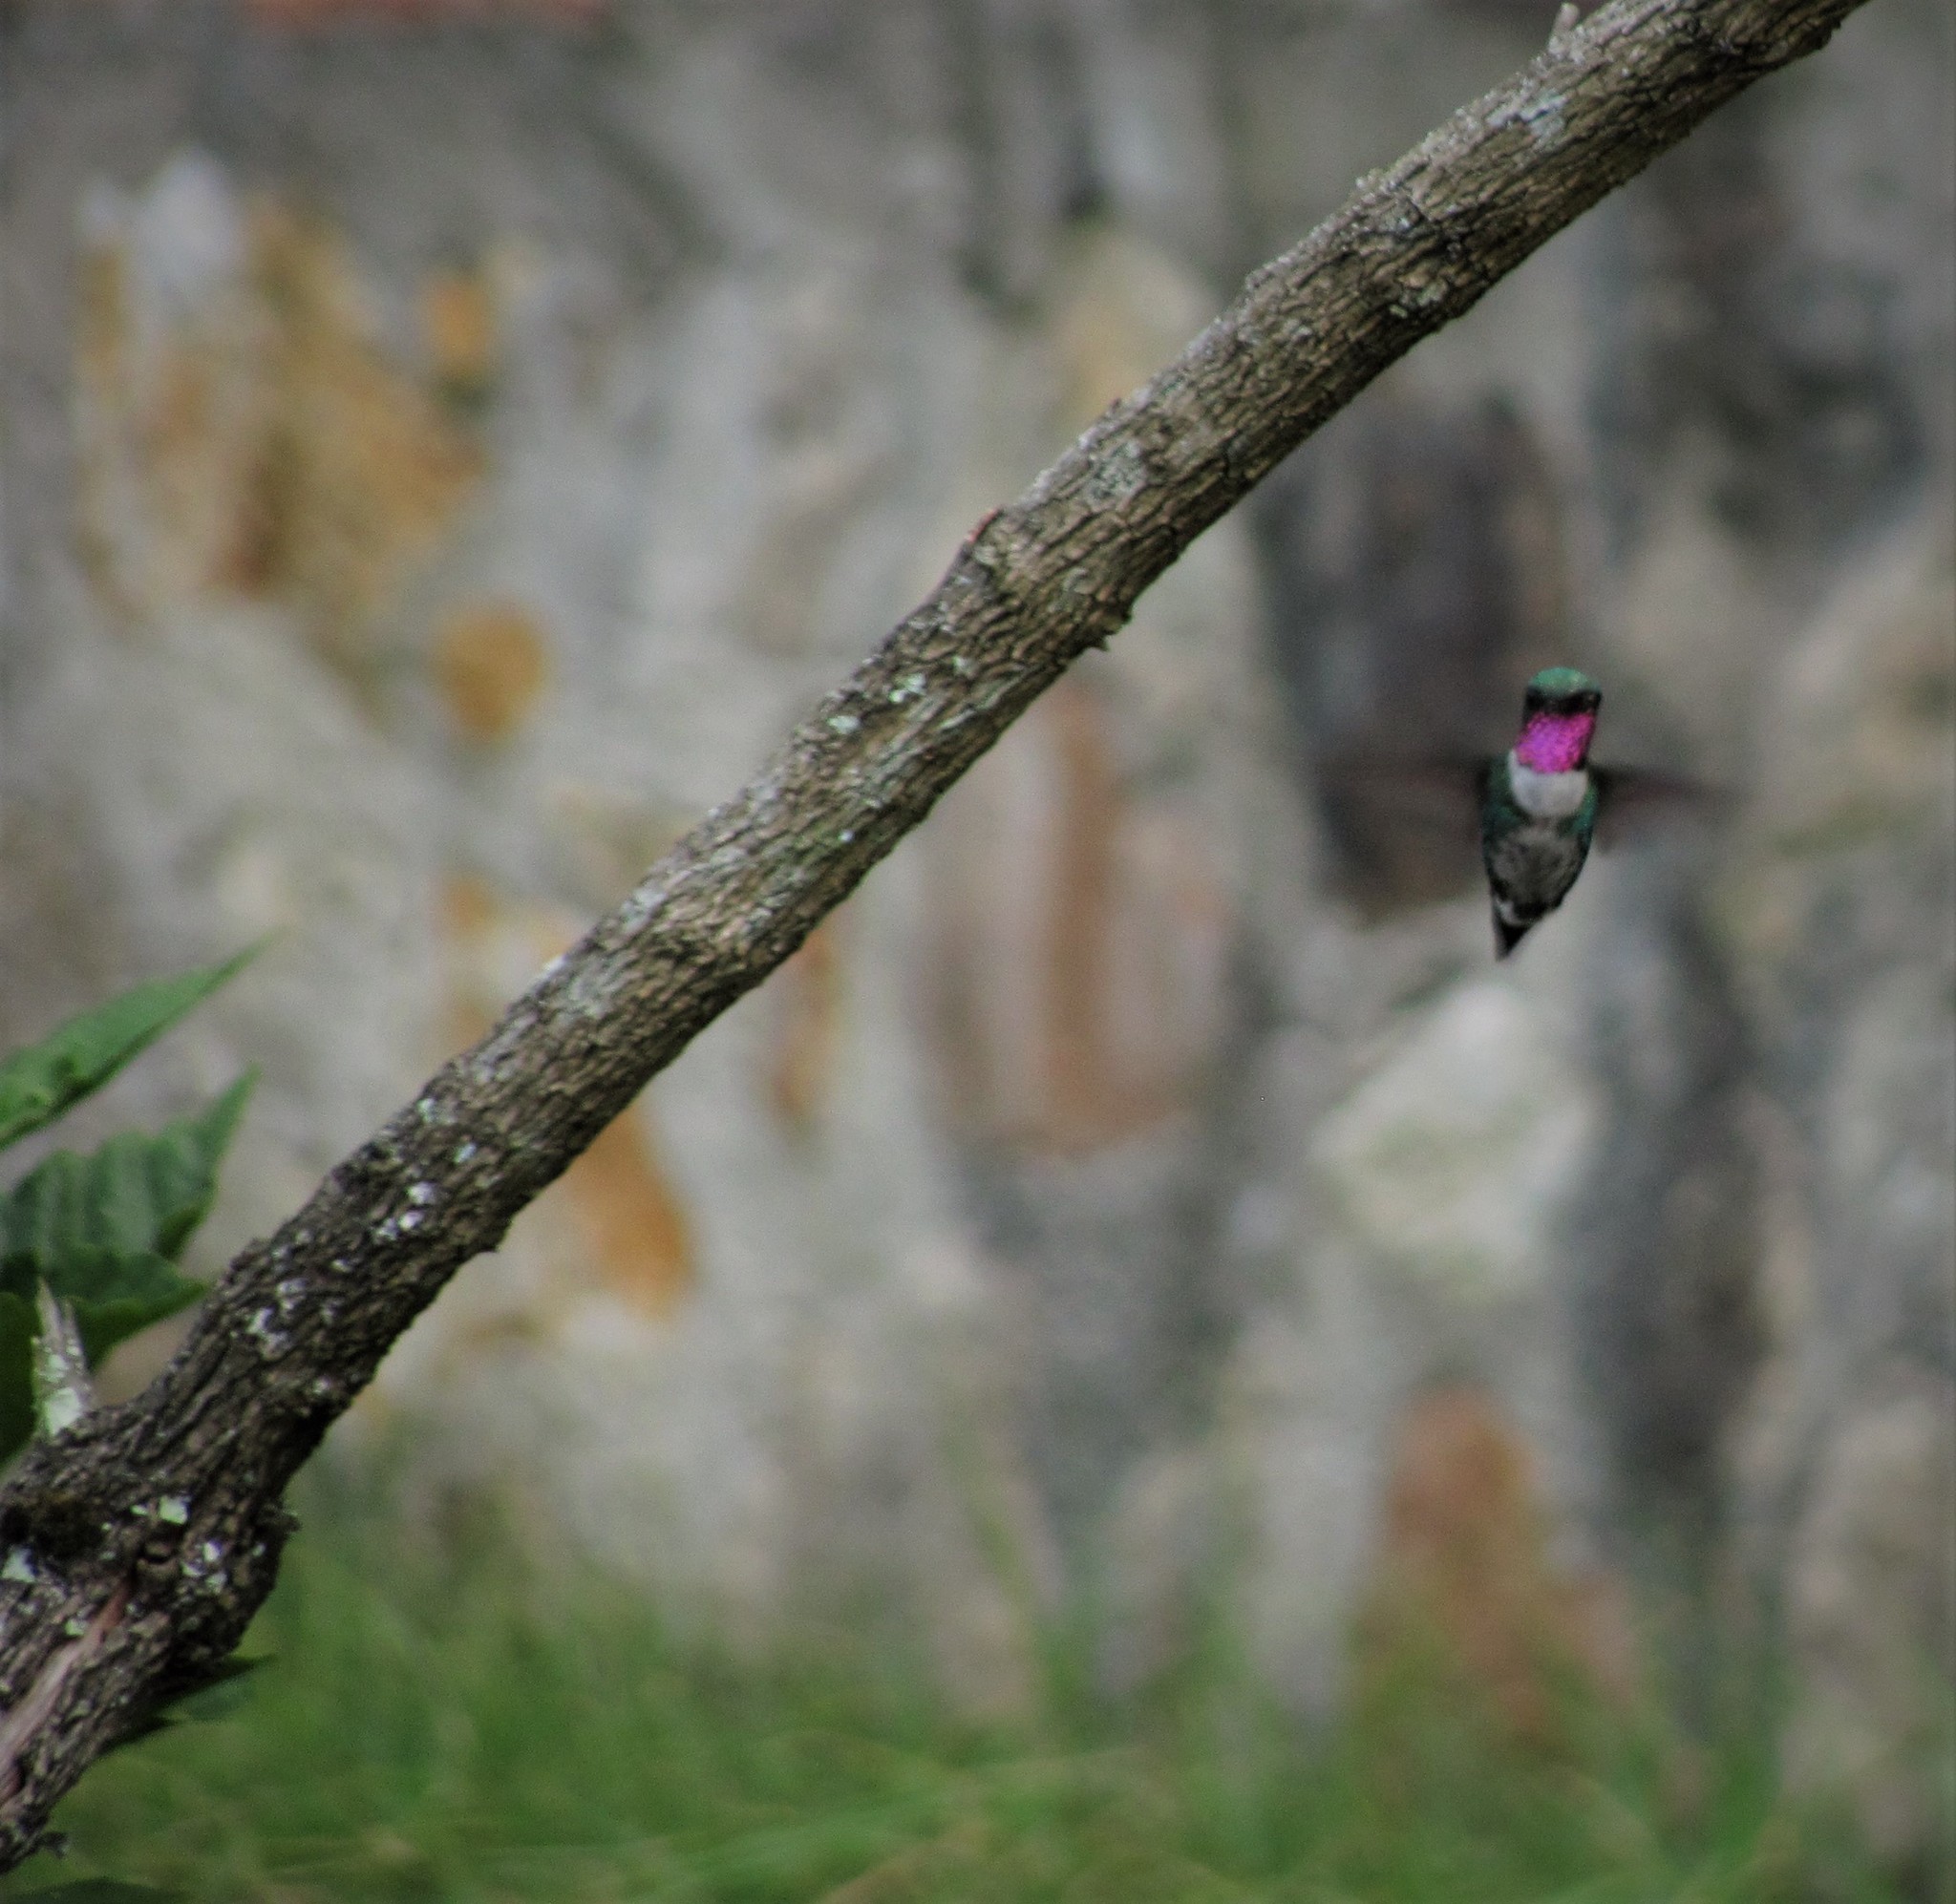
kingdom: Animalia
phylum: Chordata
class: Aves
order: Apodiformes
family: Trochilidae
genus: Chaetocercus
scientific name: Chaetocercus mulsant
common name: White-bellied woodstar
